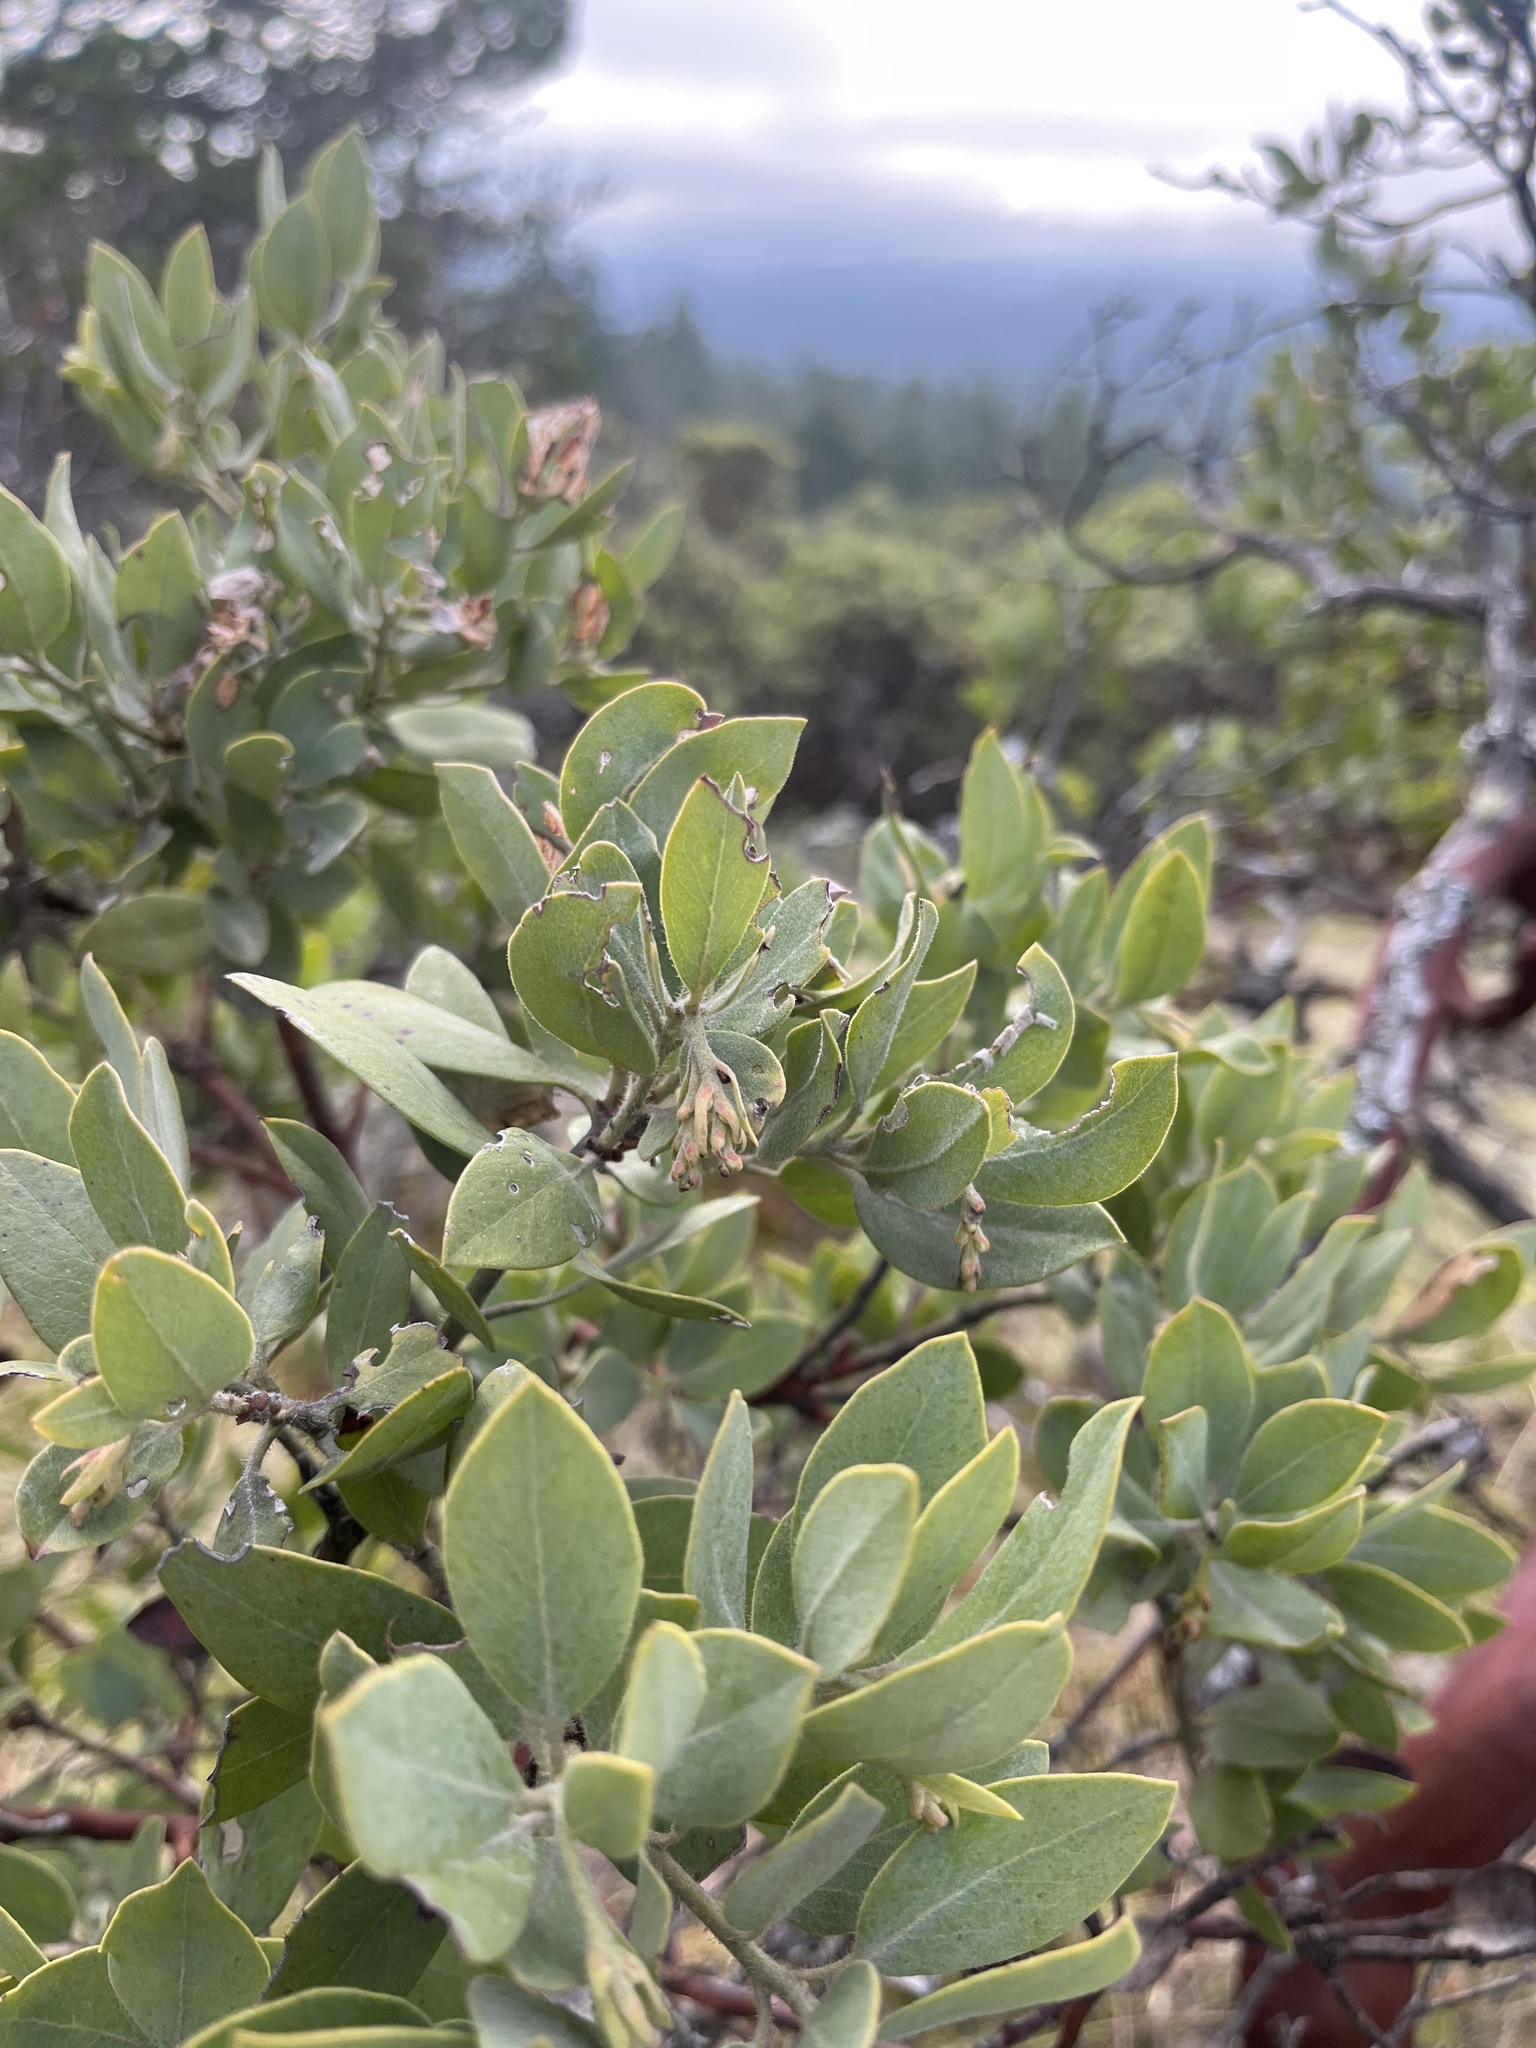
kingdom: Plantae
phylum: Tracheophyta
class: Magnoliopsida
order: Ericales
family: Ericaceae
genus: Arctostaphylos
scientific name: Arctostaphylos columbiana
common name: Bristly bearberry
